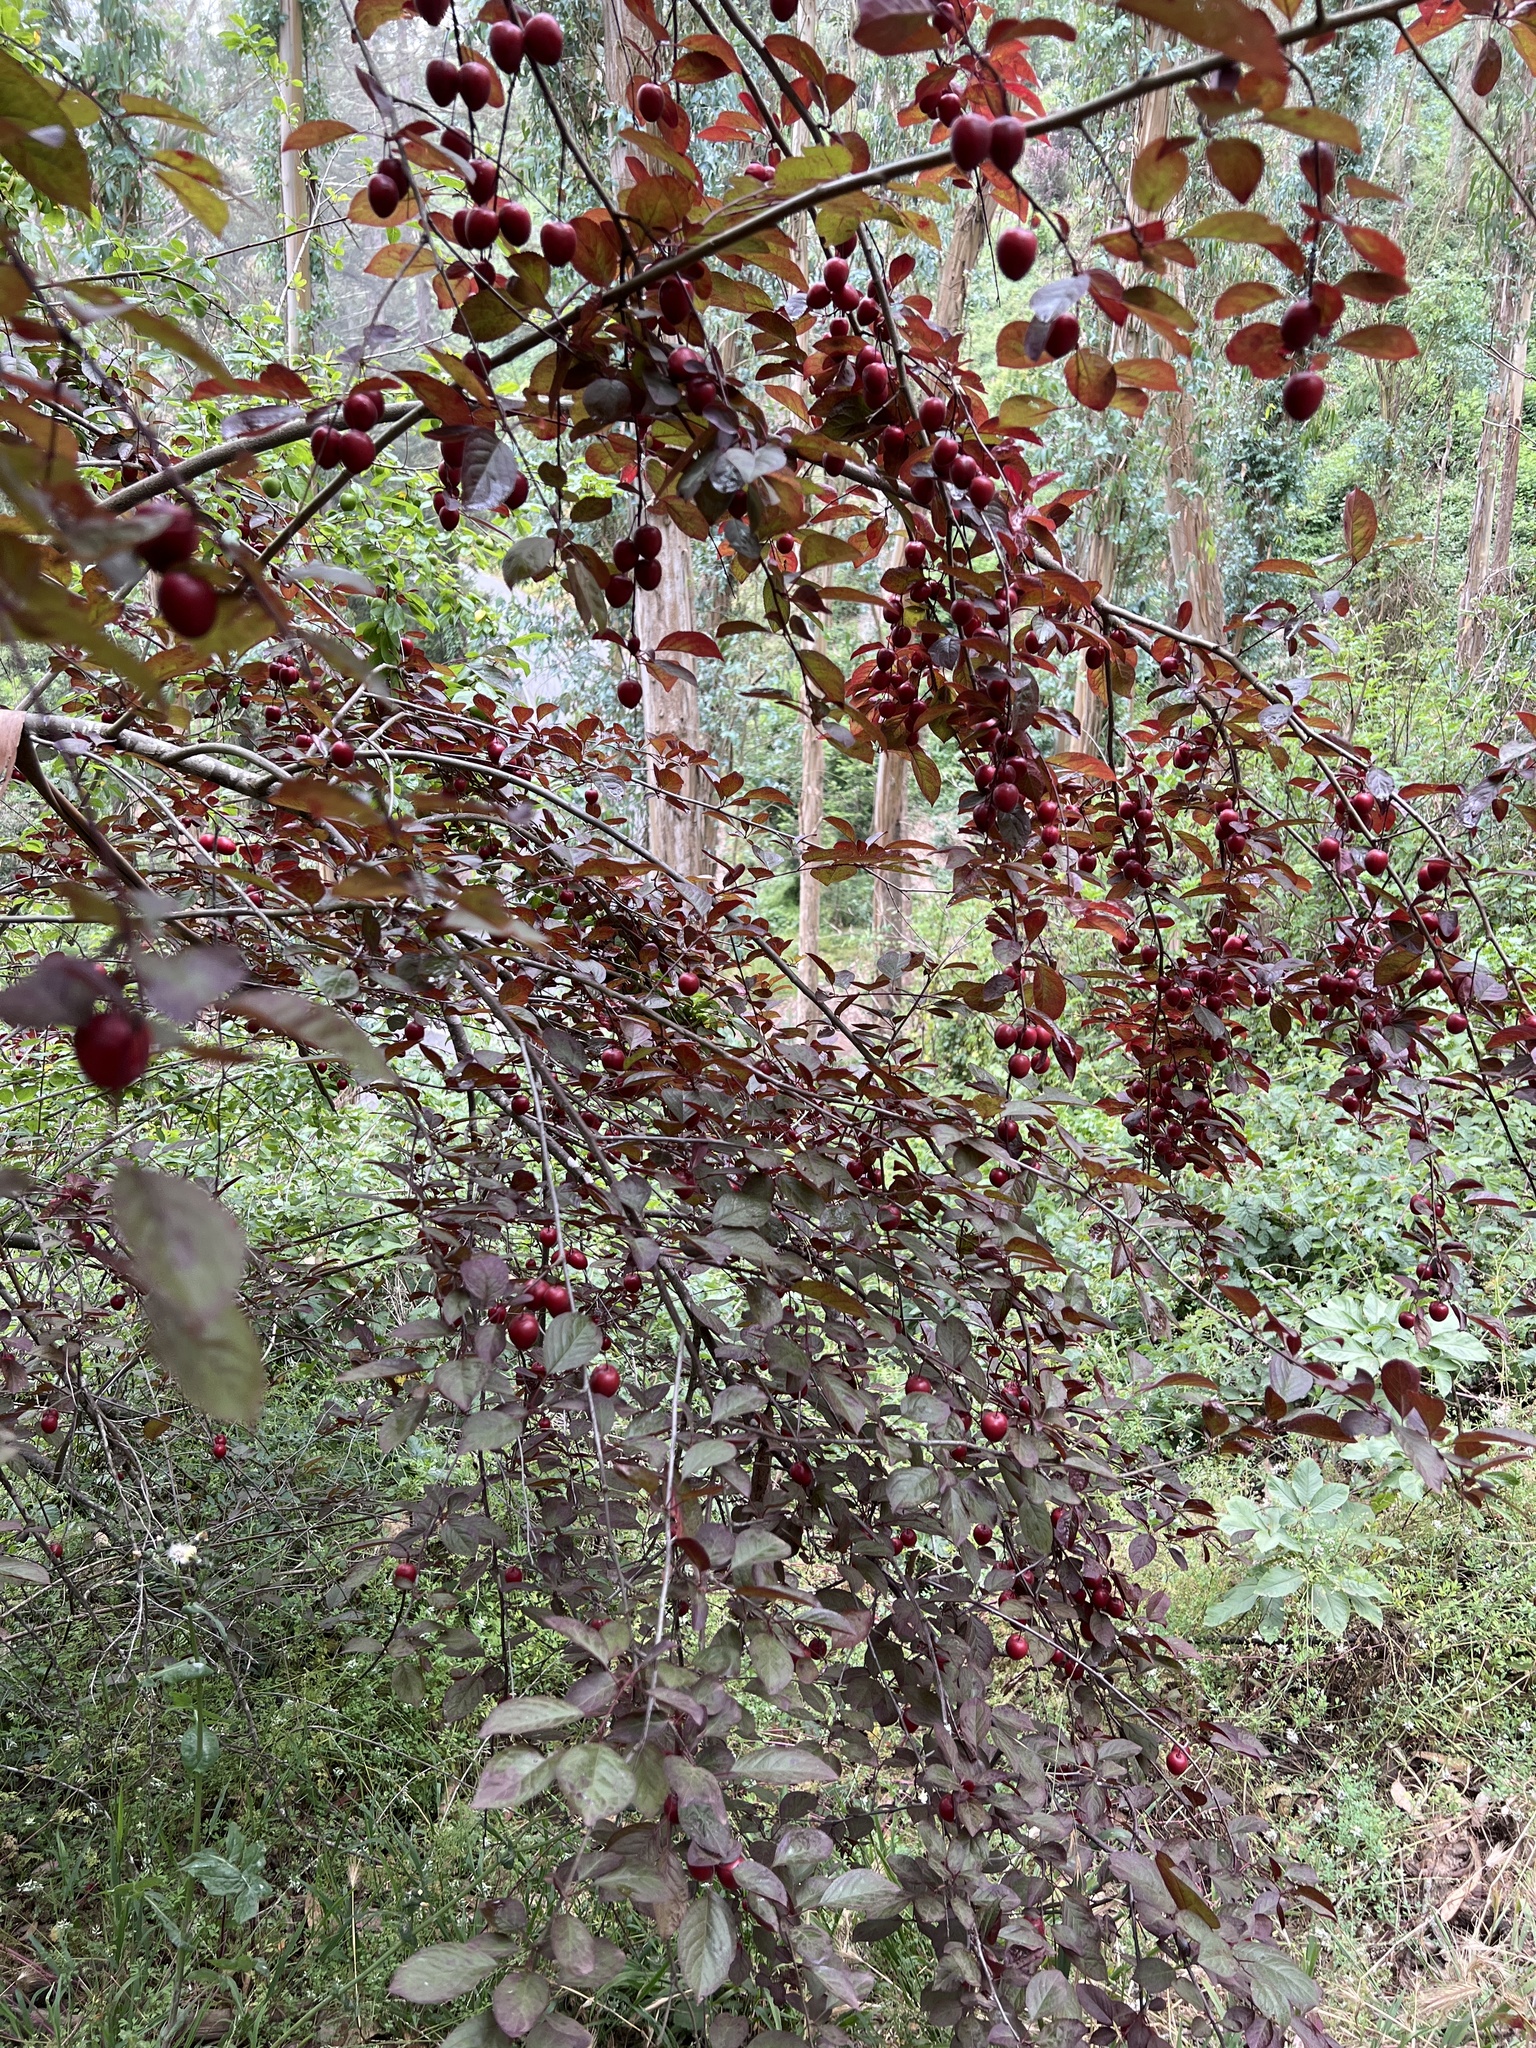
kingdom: Plantae
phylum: Tracheophyta
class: Magnoliopsida
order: Rosales
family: Rosaceae
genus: Prunus
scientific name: Prunus cerasifera
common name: Cherry plum
